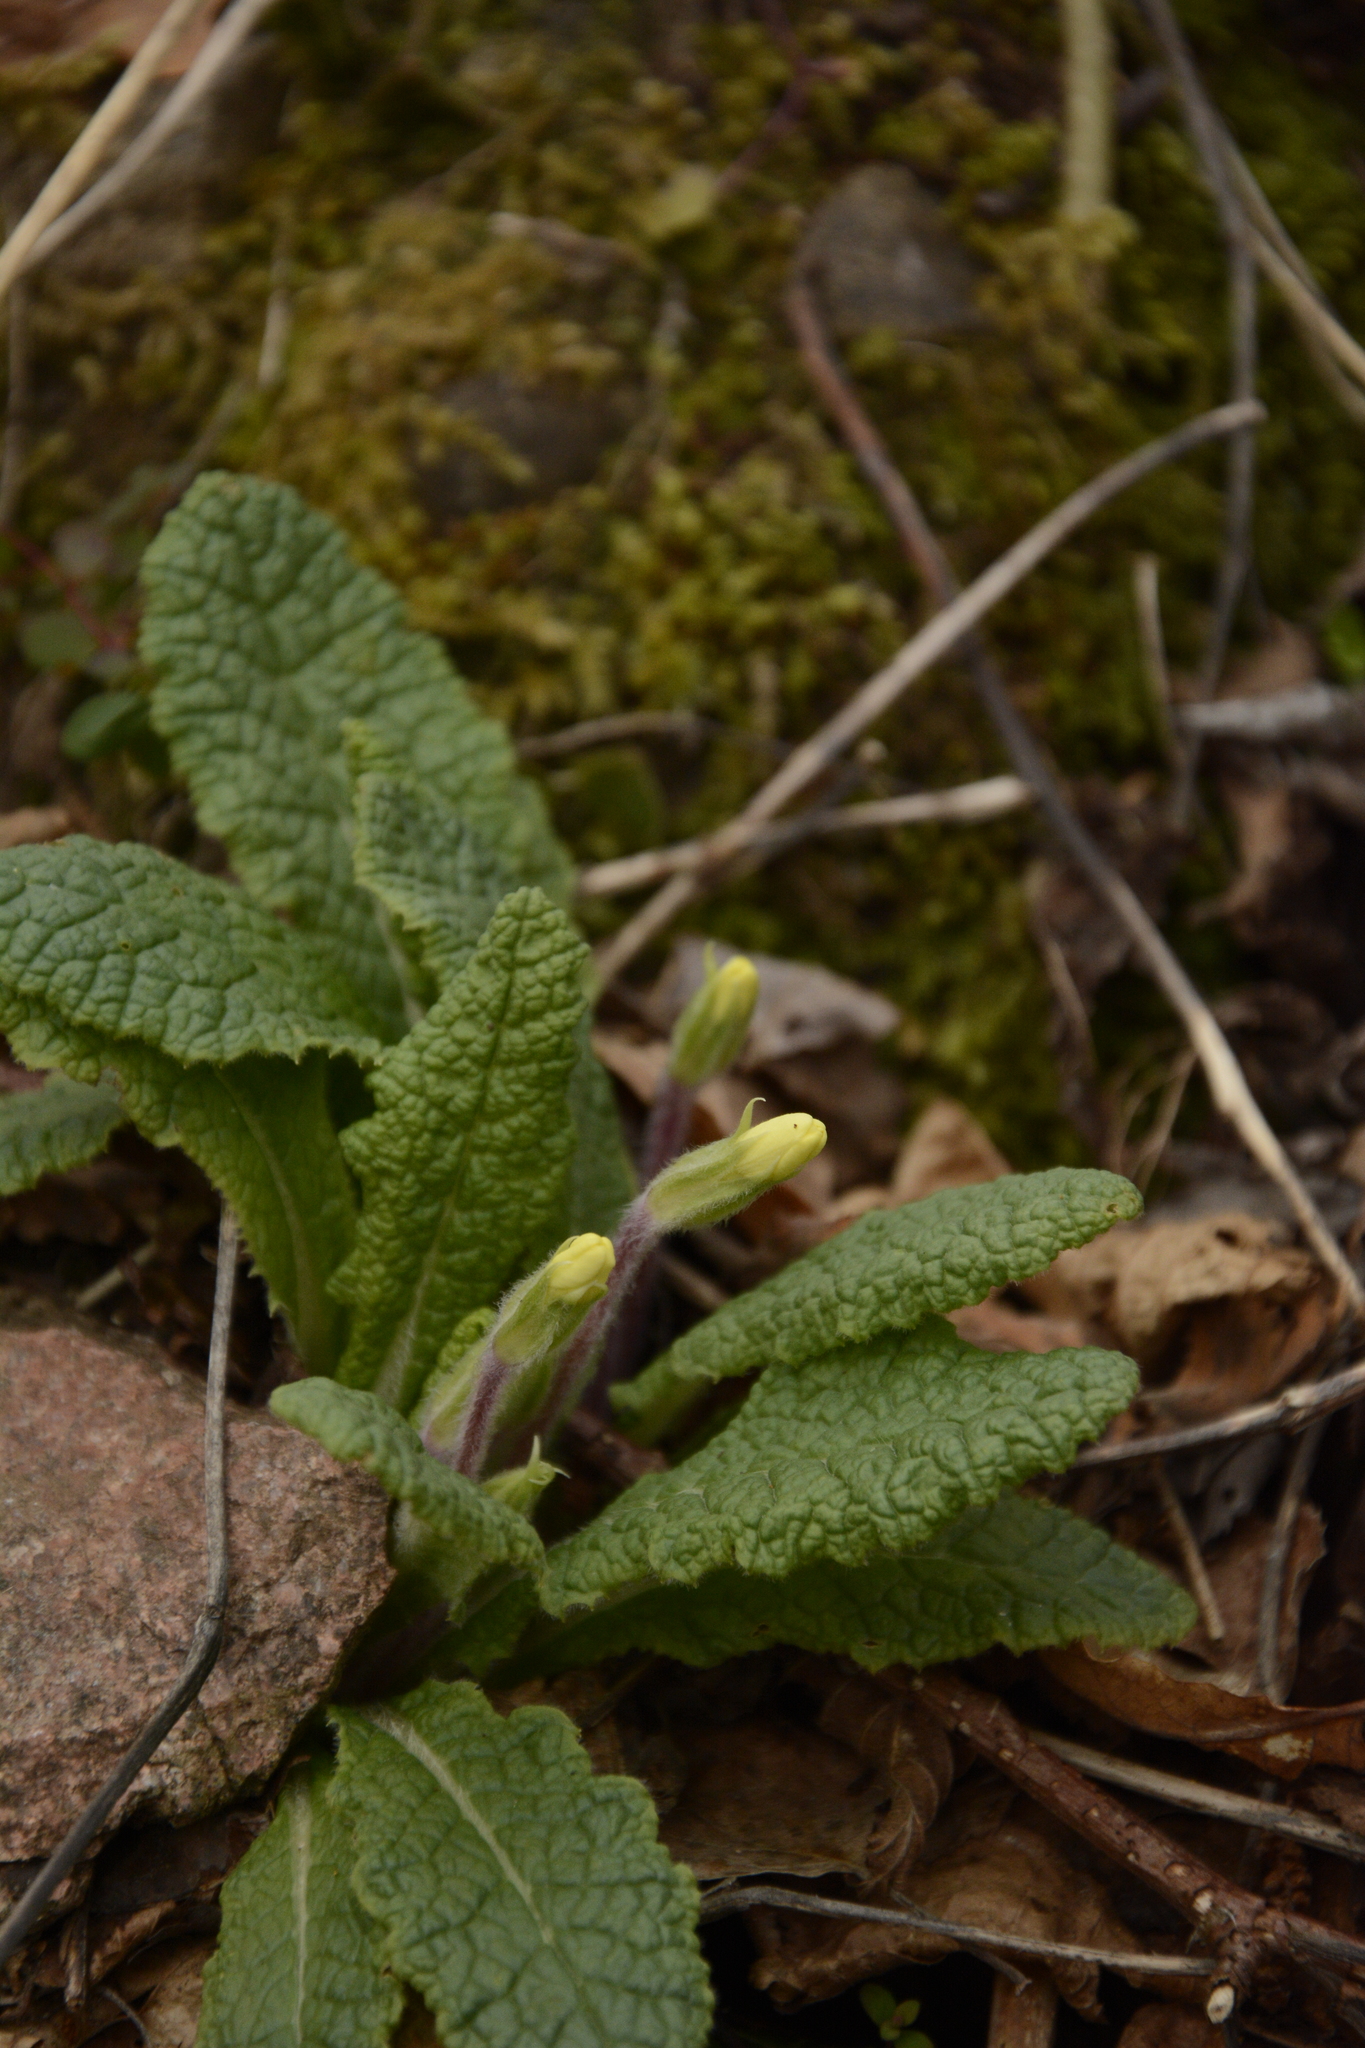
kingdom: Plantae
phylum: Tracheophyta
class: Magnoliopsida
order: Ericales
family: Primulaceae
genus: Primula
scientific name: Primula vulgaris
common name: Primrose
